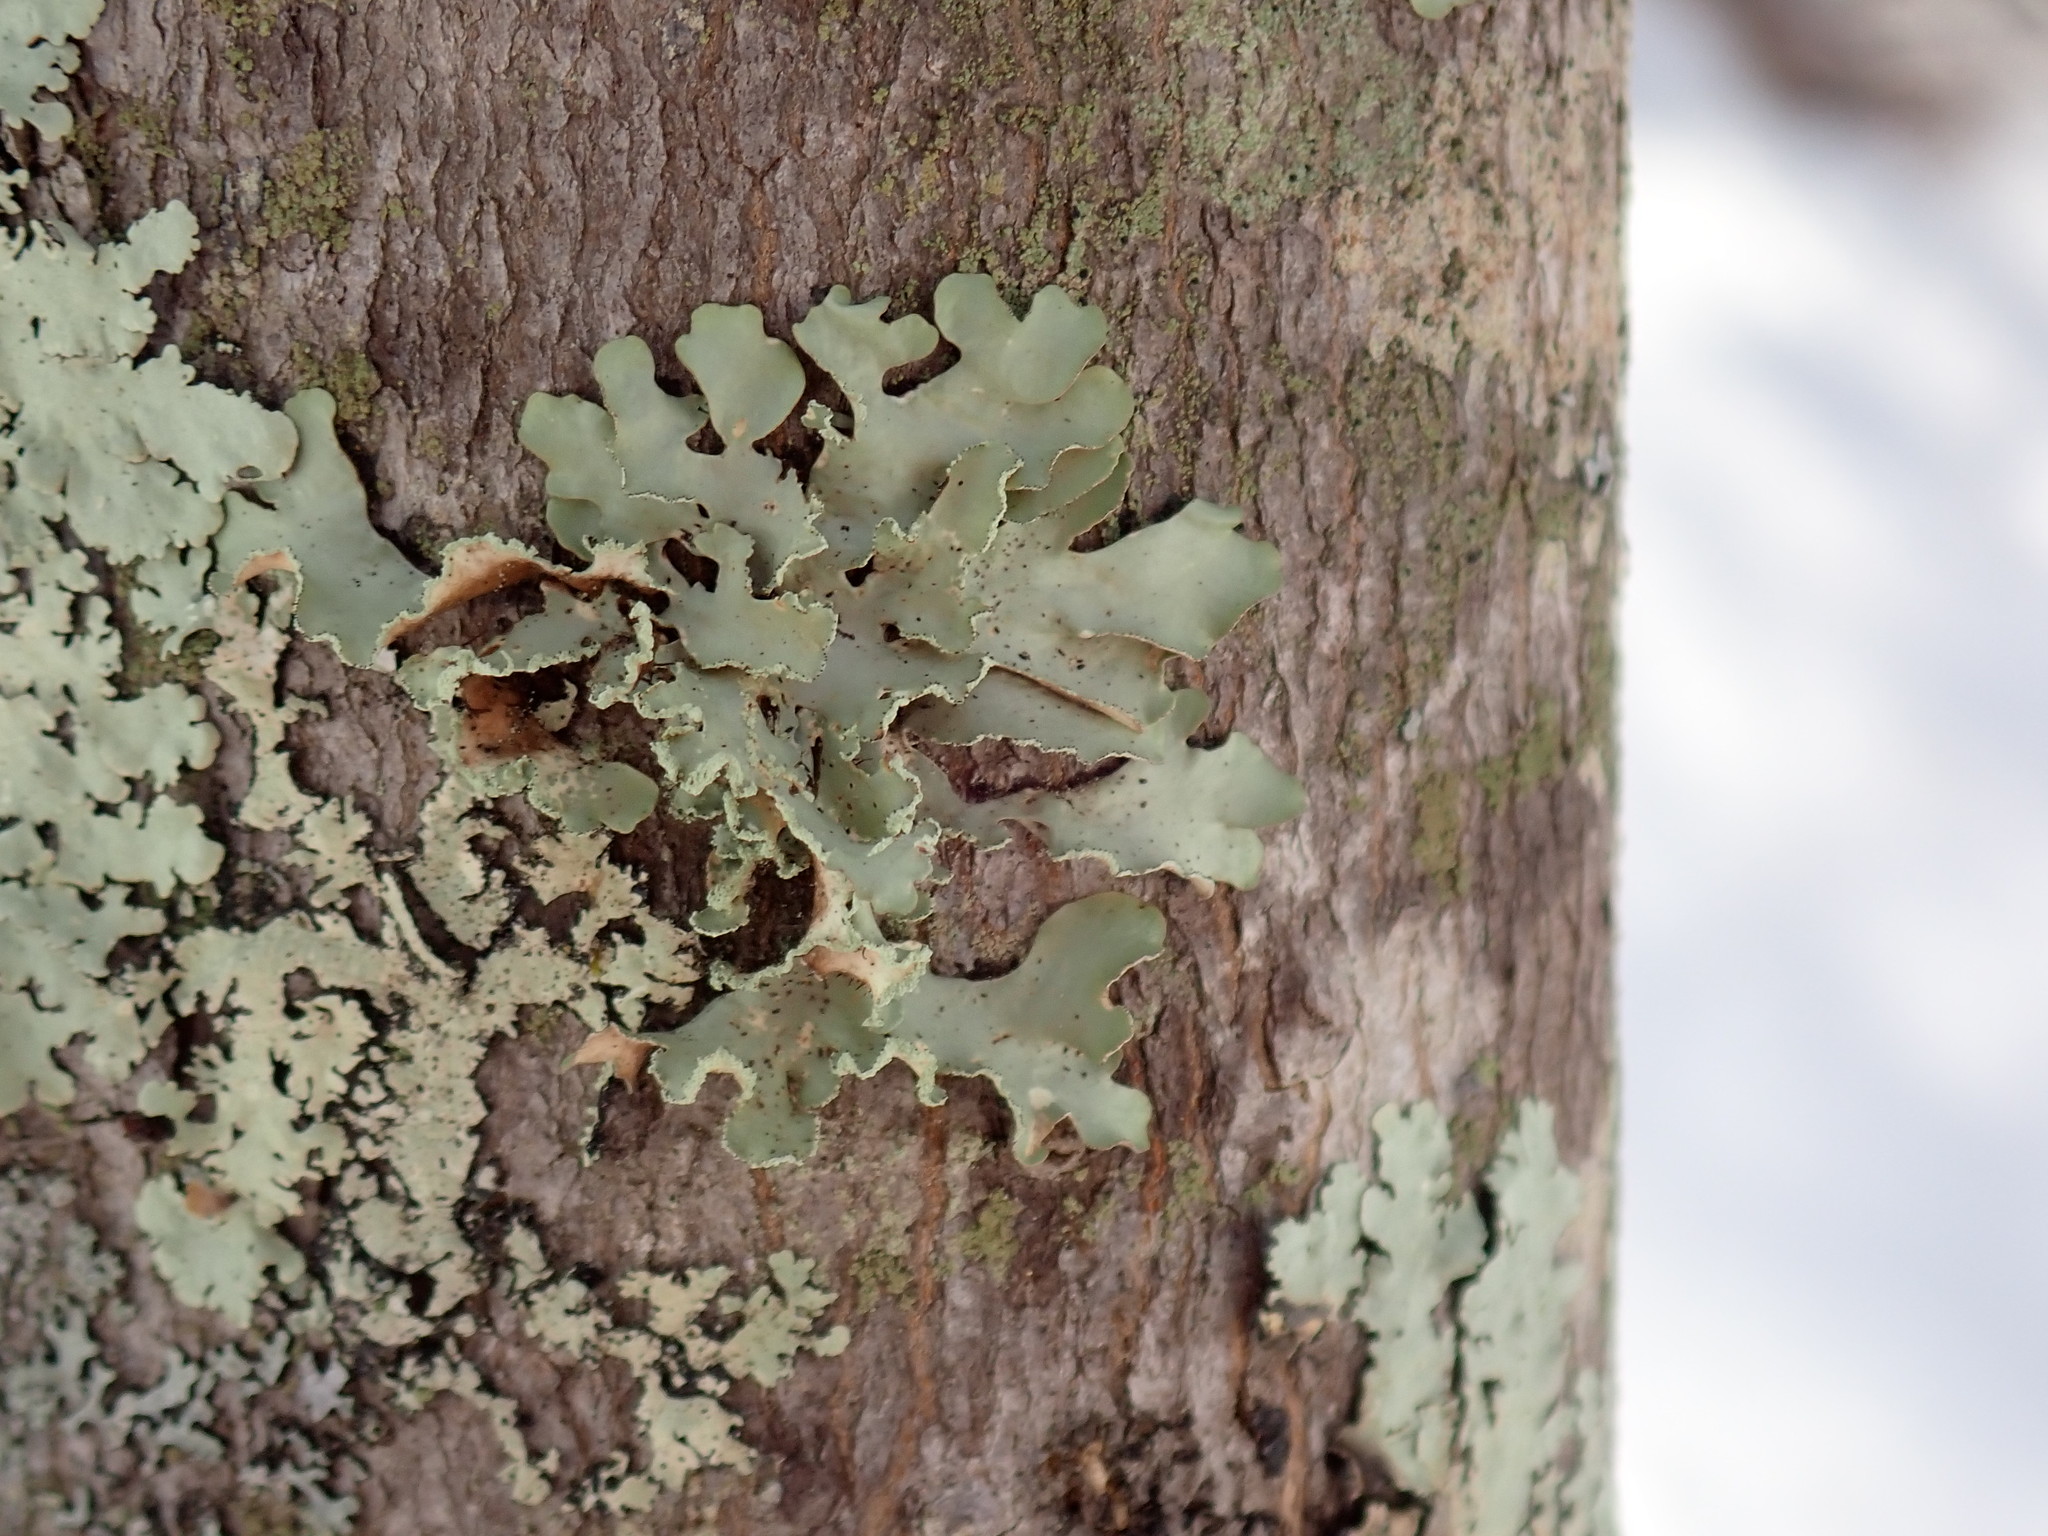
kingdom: Fungi
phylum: Ascomycota
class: Lecanoromycetes
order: Lecanorales
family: Parmeliaceae
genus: Usnocetraria
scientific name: Usnocetraria oakesiana
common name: Yellow ribbon lichen
